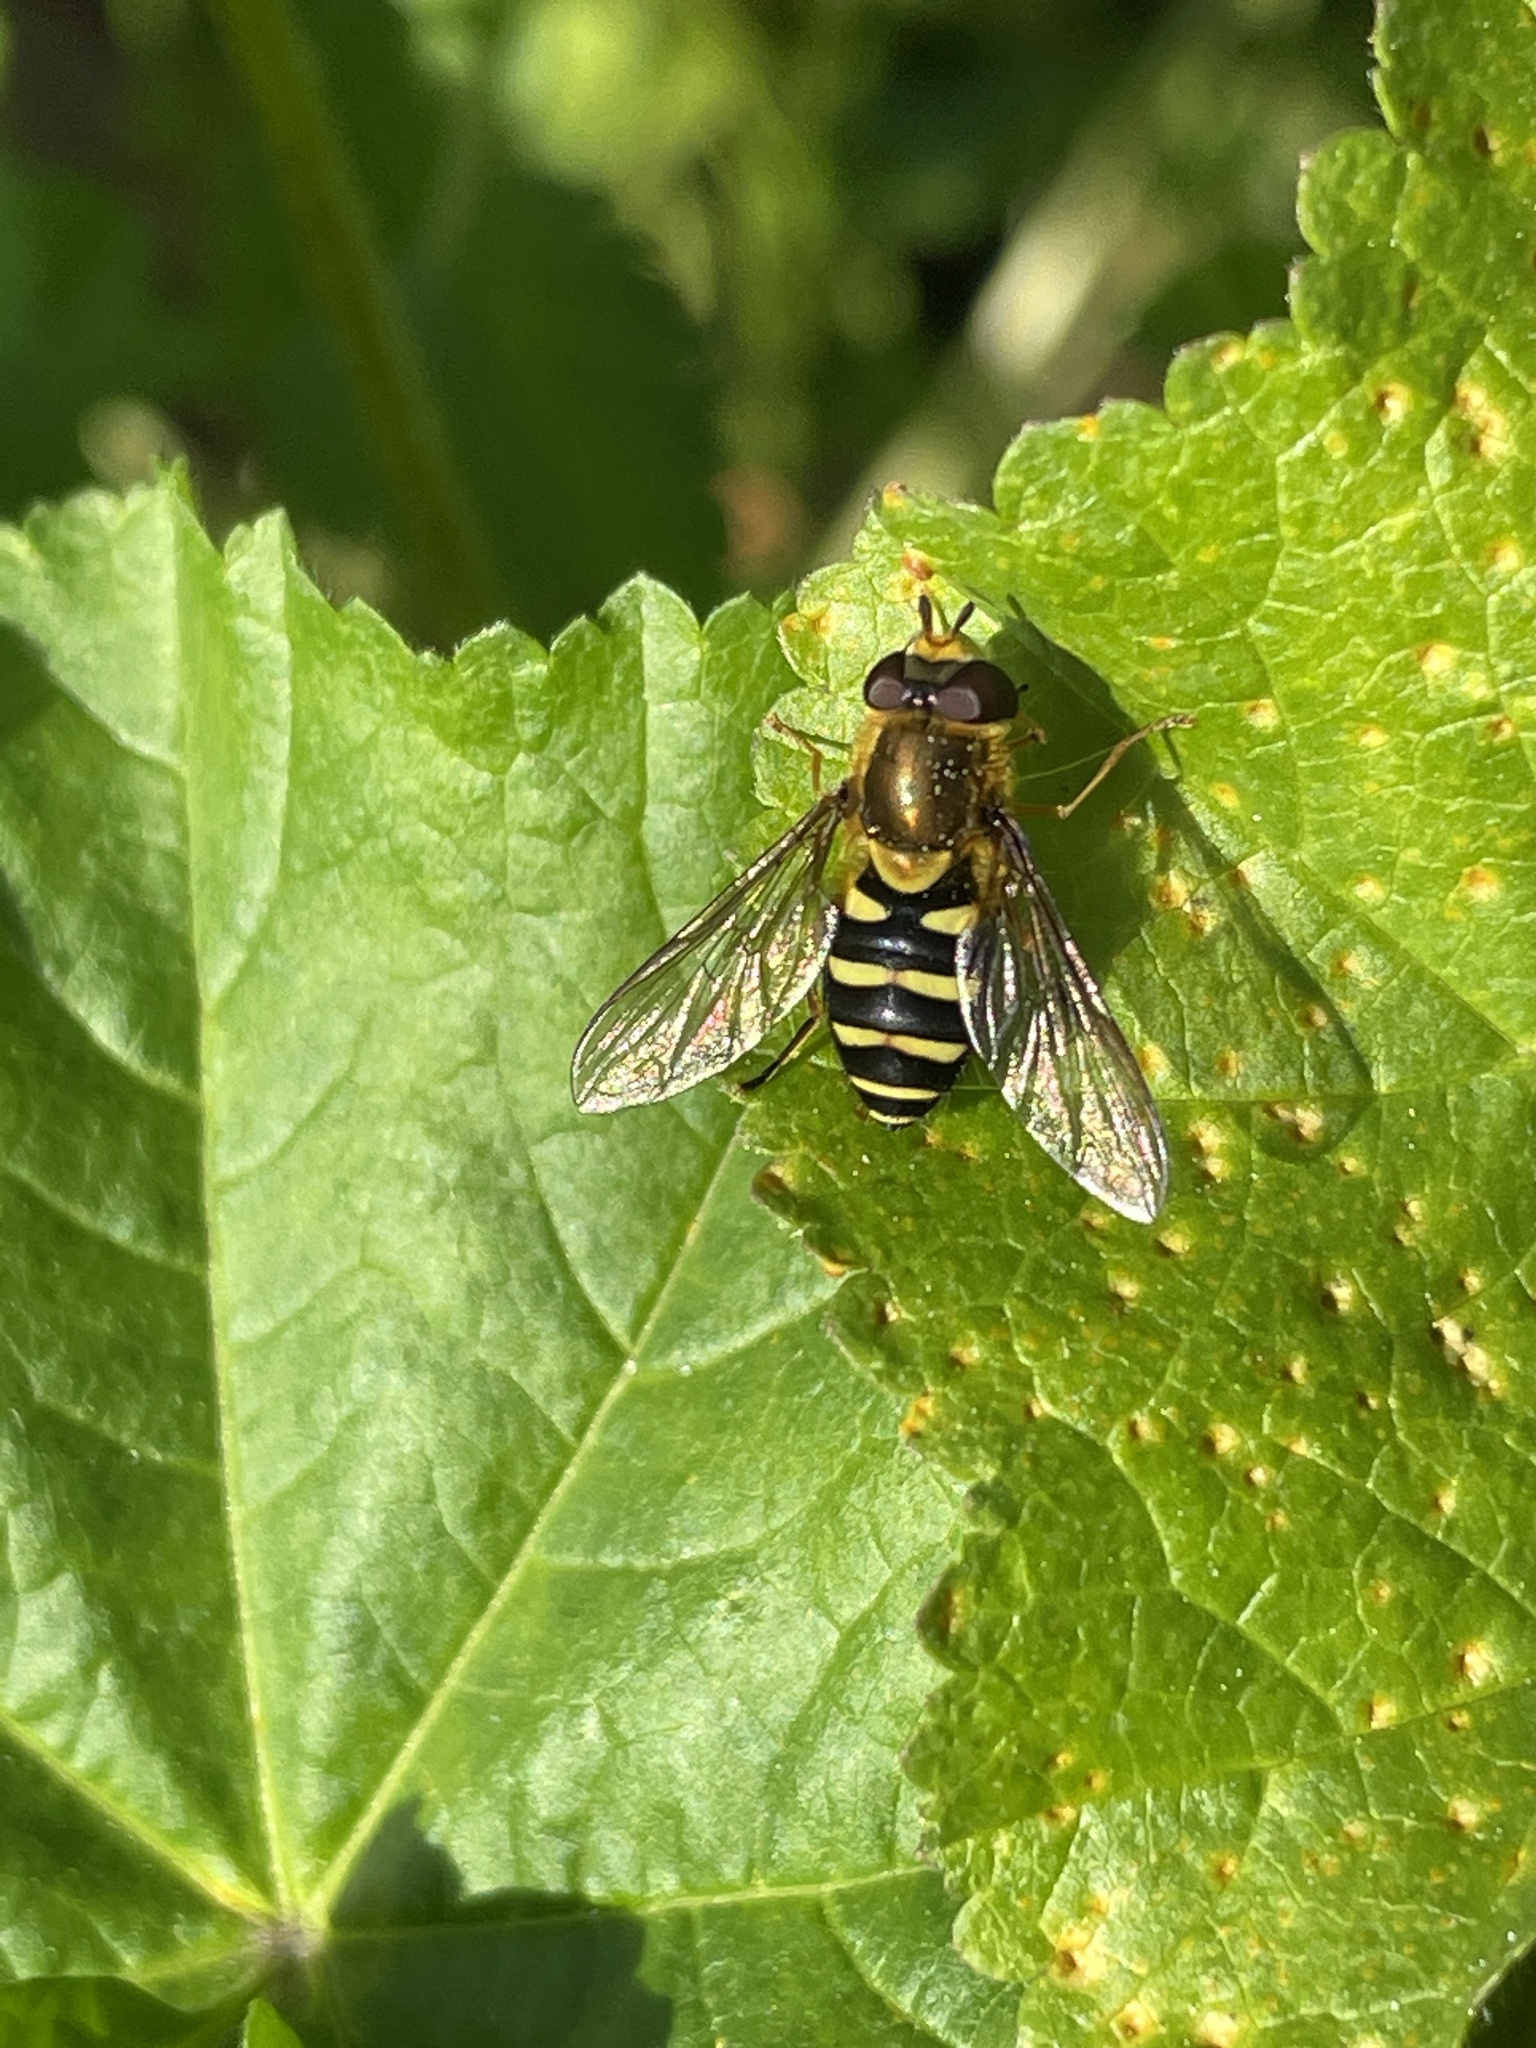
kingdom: Animalia
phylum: Arthropoda
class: Insecta
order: Diptera
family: Syrphidae
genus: Syrphus
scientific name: Syrphus opinator
